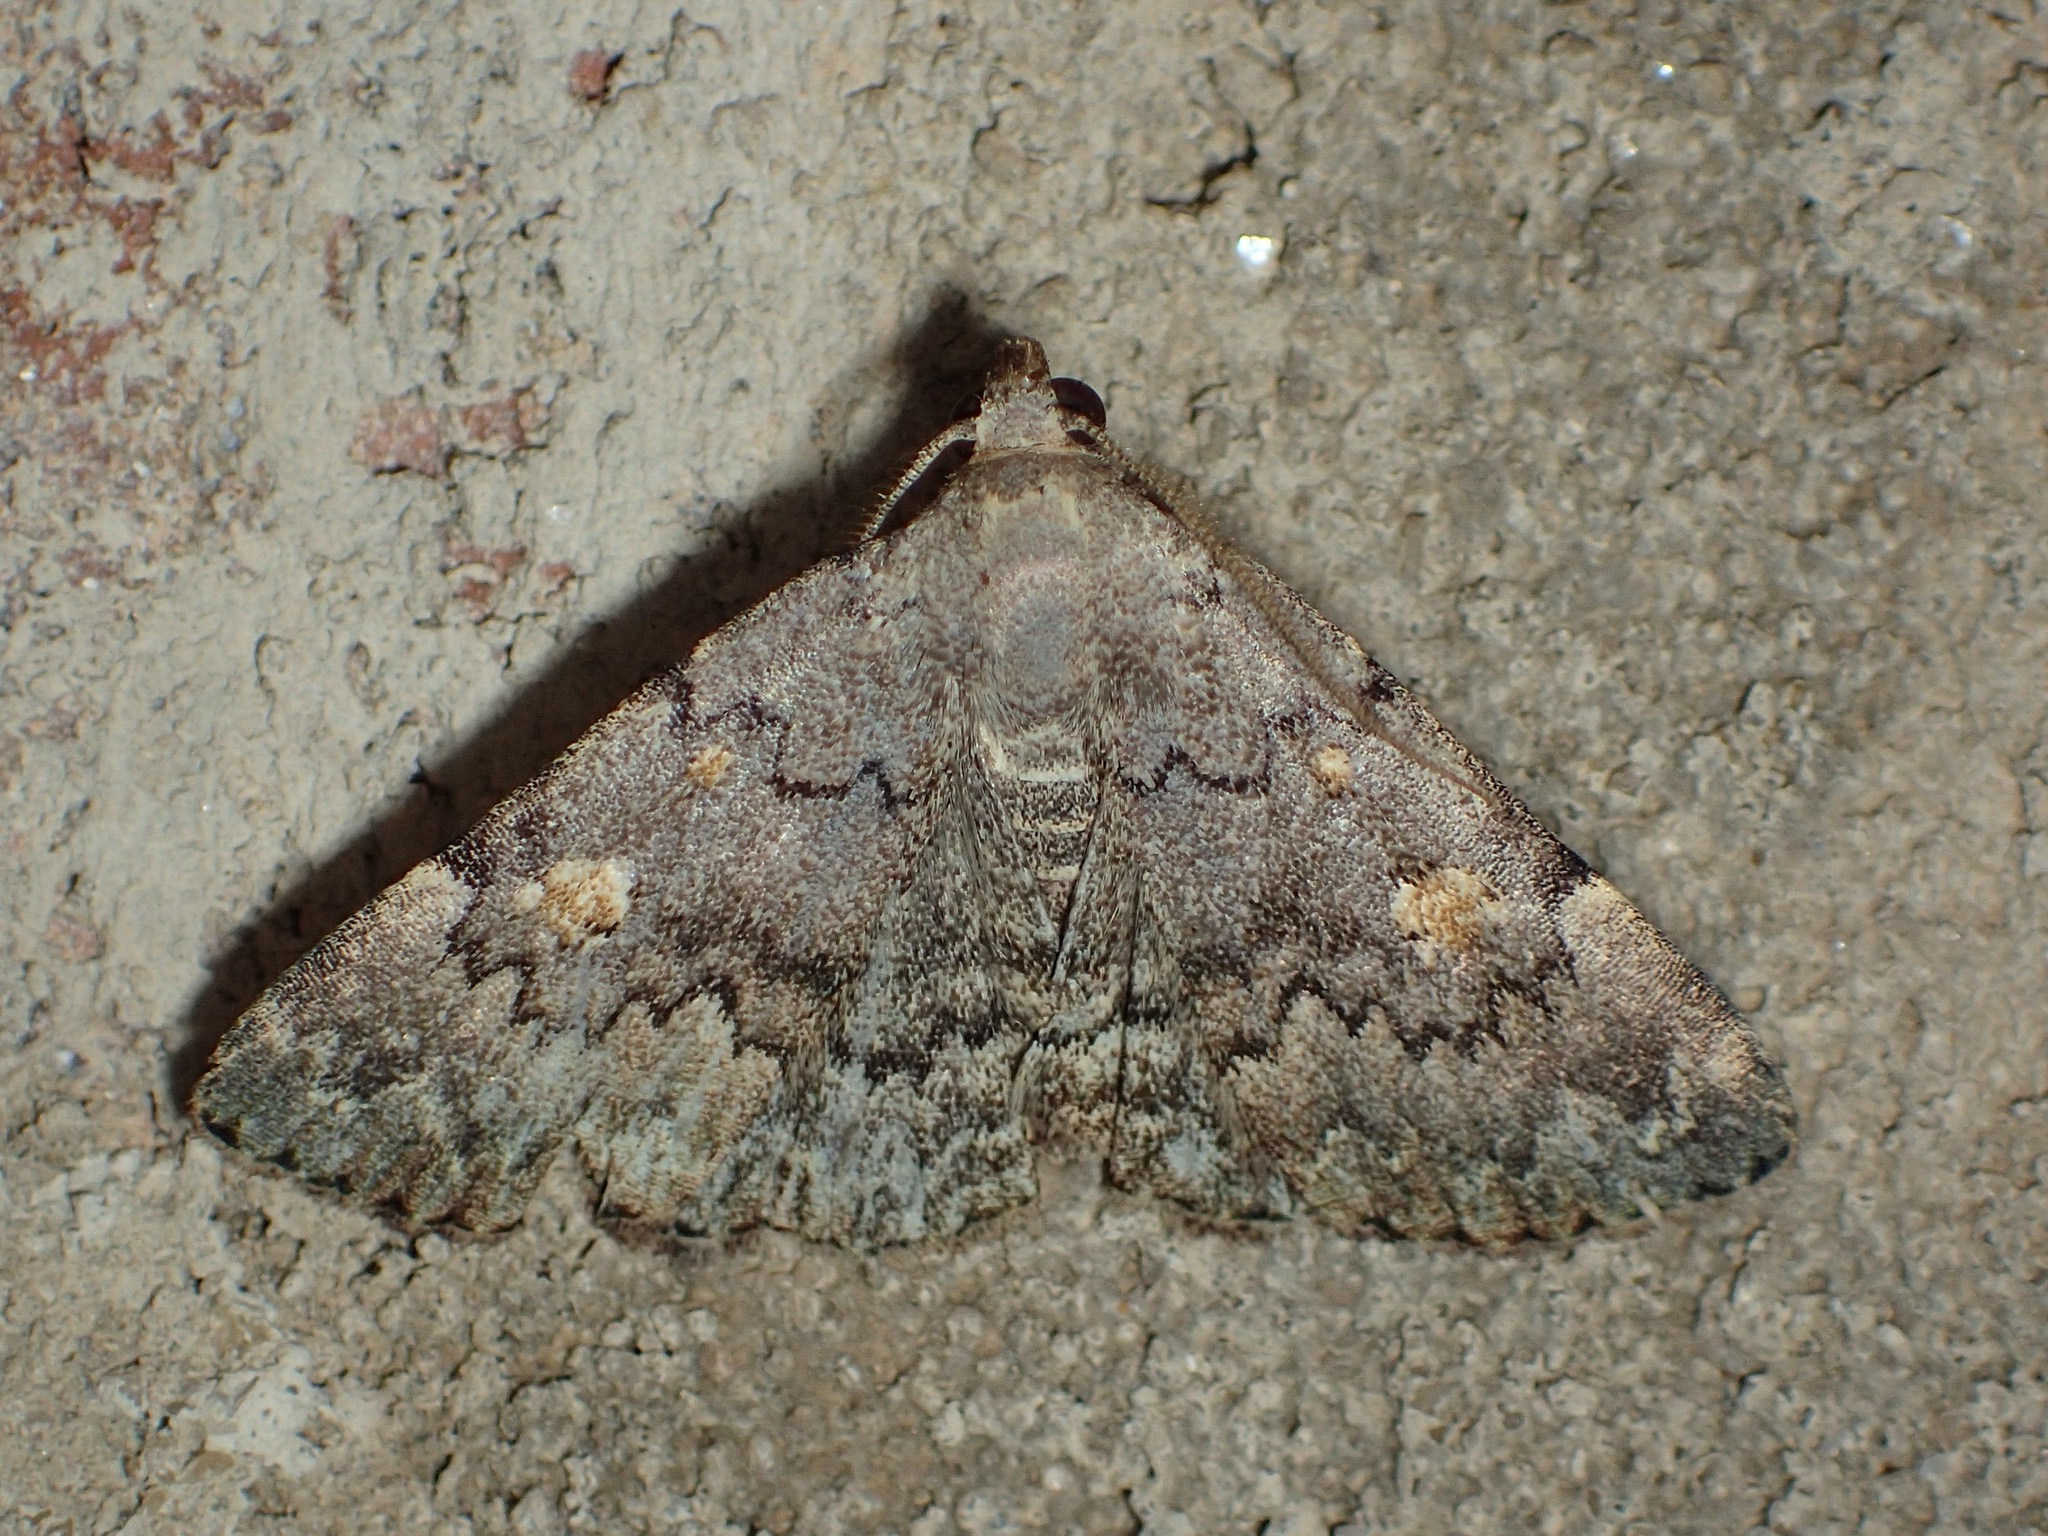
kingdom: Animalia
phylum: Arthropoda
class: Insecta
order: Lepidoptera
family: Erebidae
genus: Idia
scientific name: Idia aemula
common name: Common idia moth
